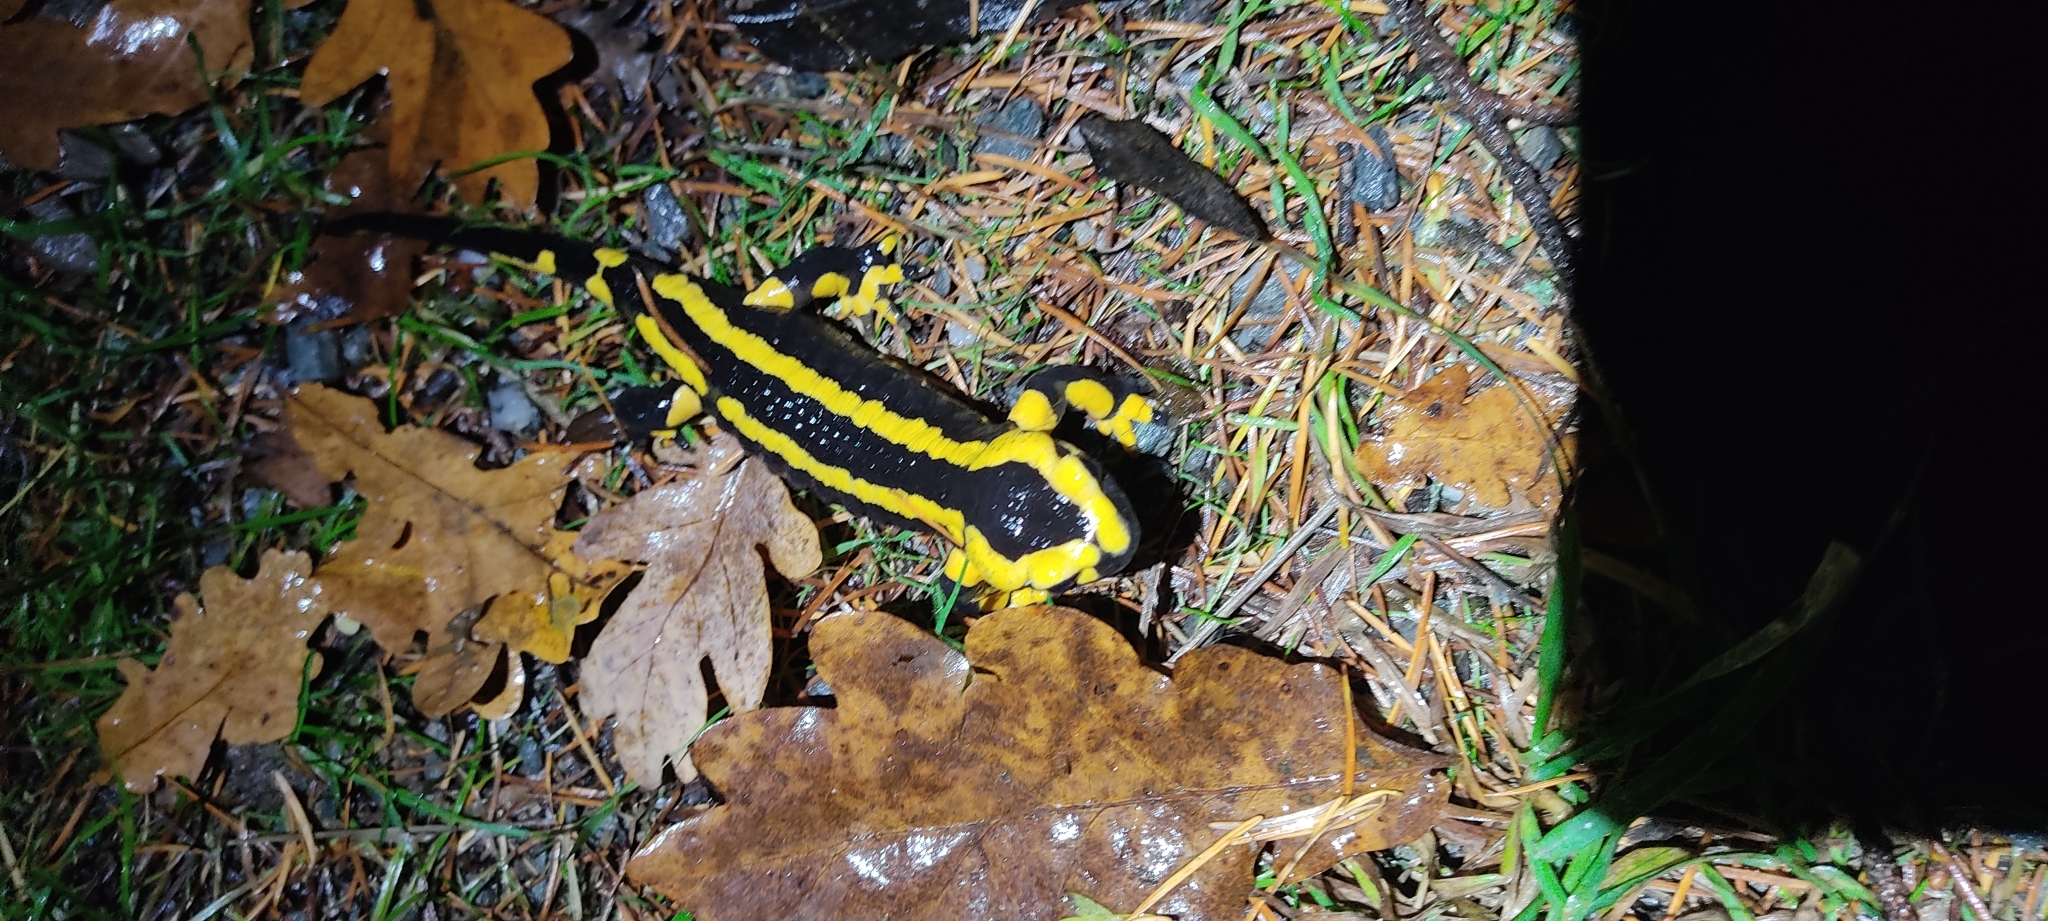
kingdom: Animalia
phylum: Chordata
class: Amphibia
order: Caudata
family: Salamandridae
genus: Salamandra
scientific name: Salamandra salamandra
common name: Fire salamander
